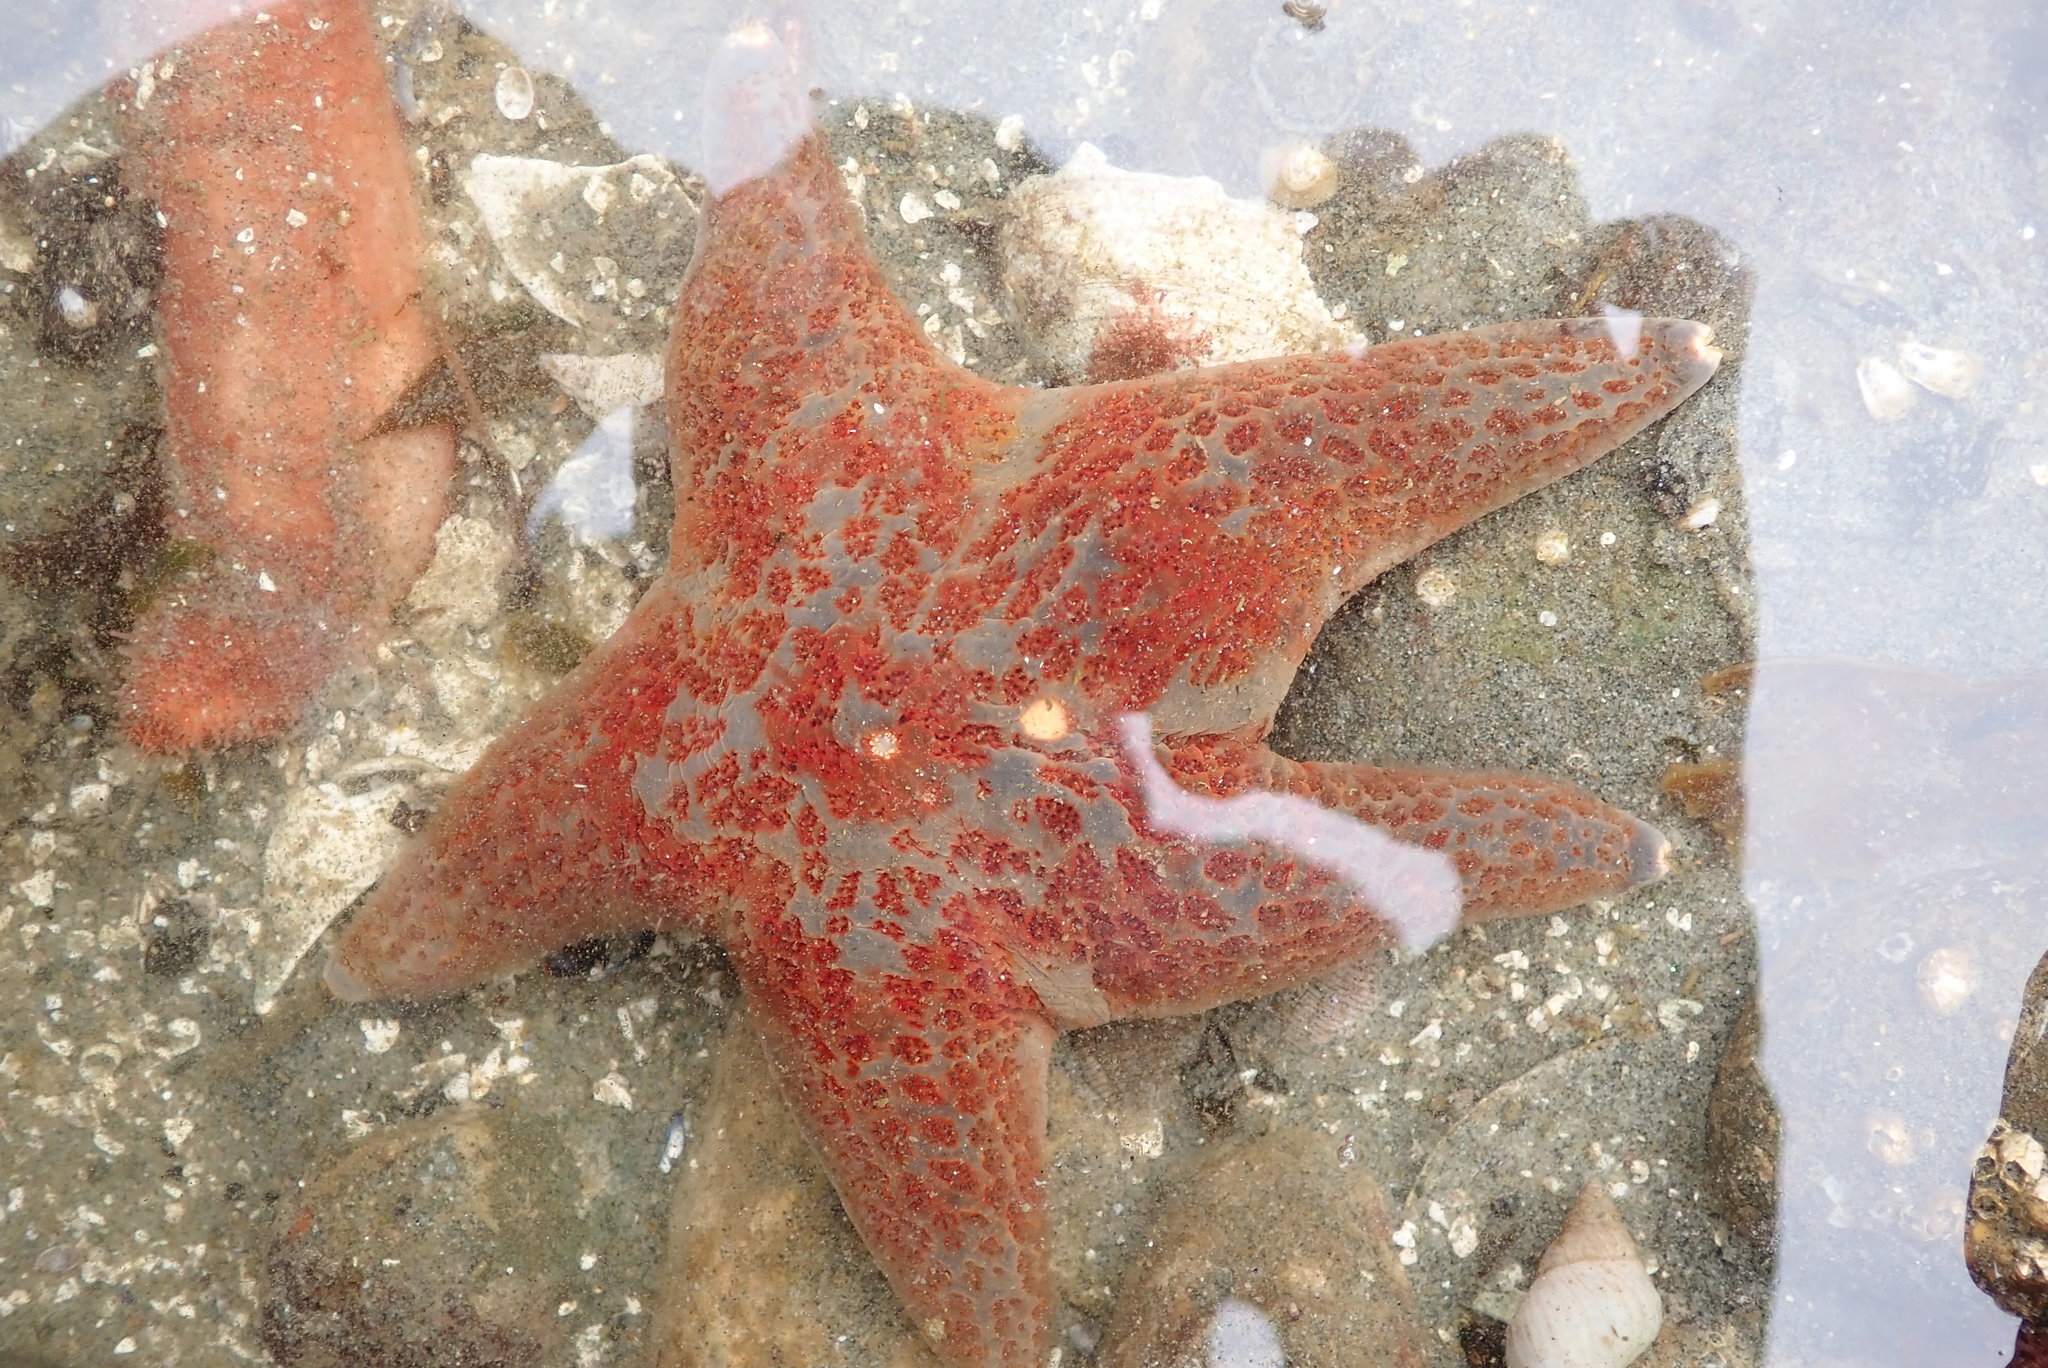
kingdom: Animalia
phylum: Echinodermata
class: Asteroidea
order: Valvatida
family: Asteropseidae
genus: Dermasterias
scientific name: Dermasterias imbricata
